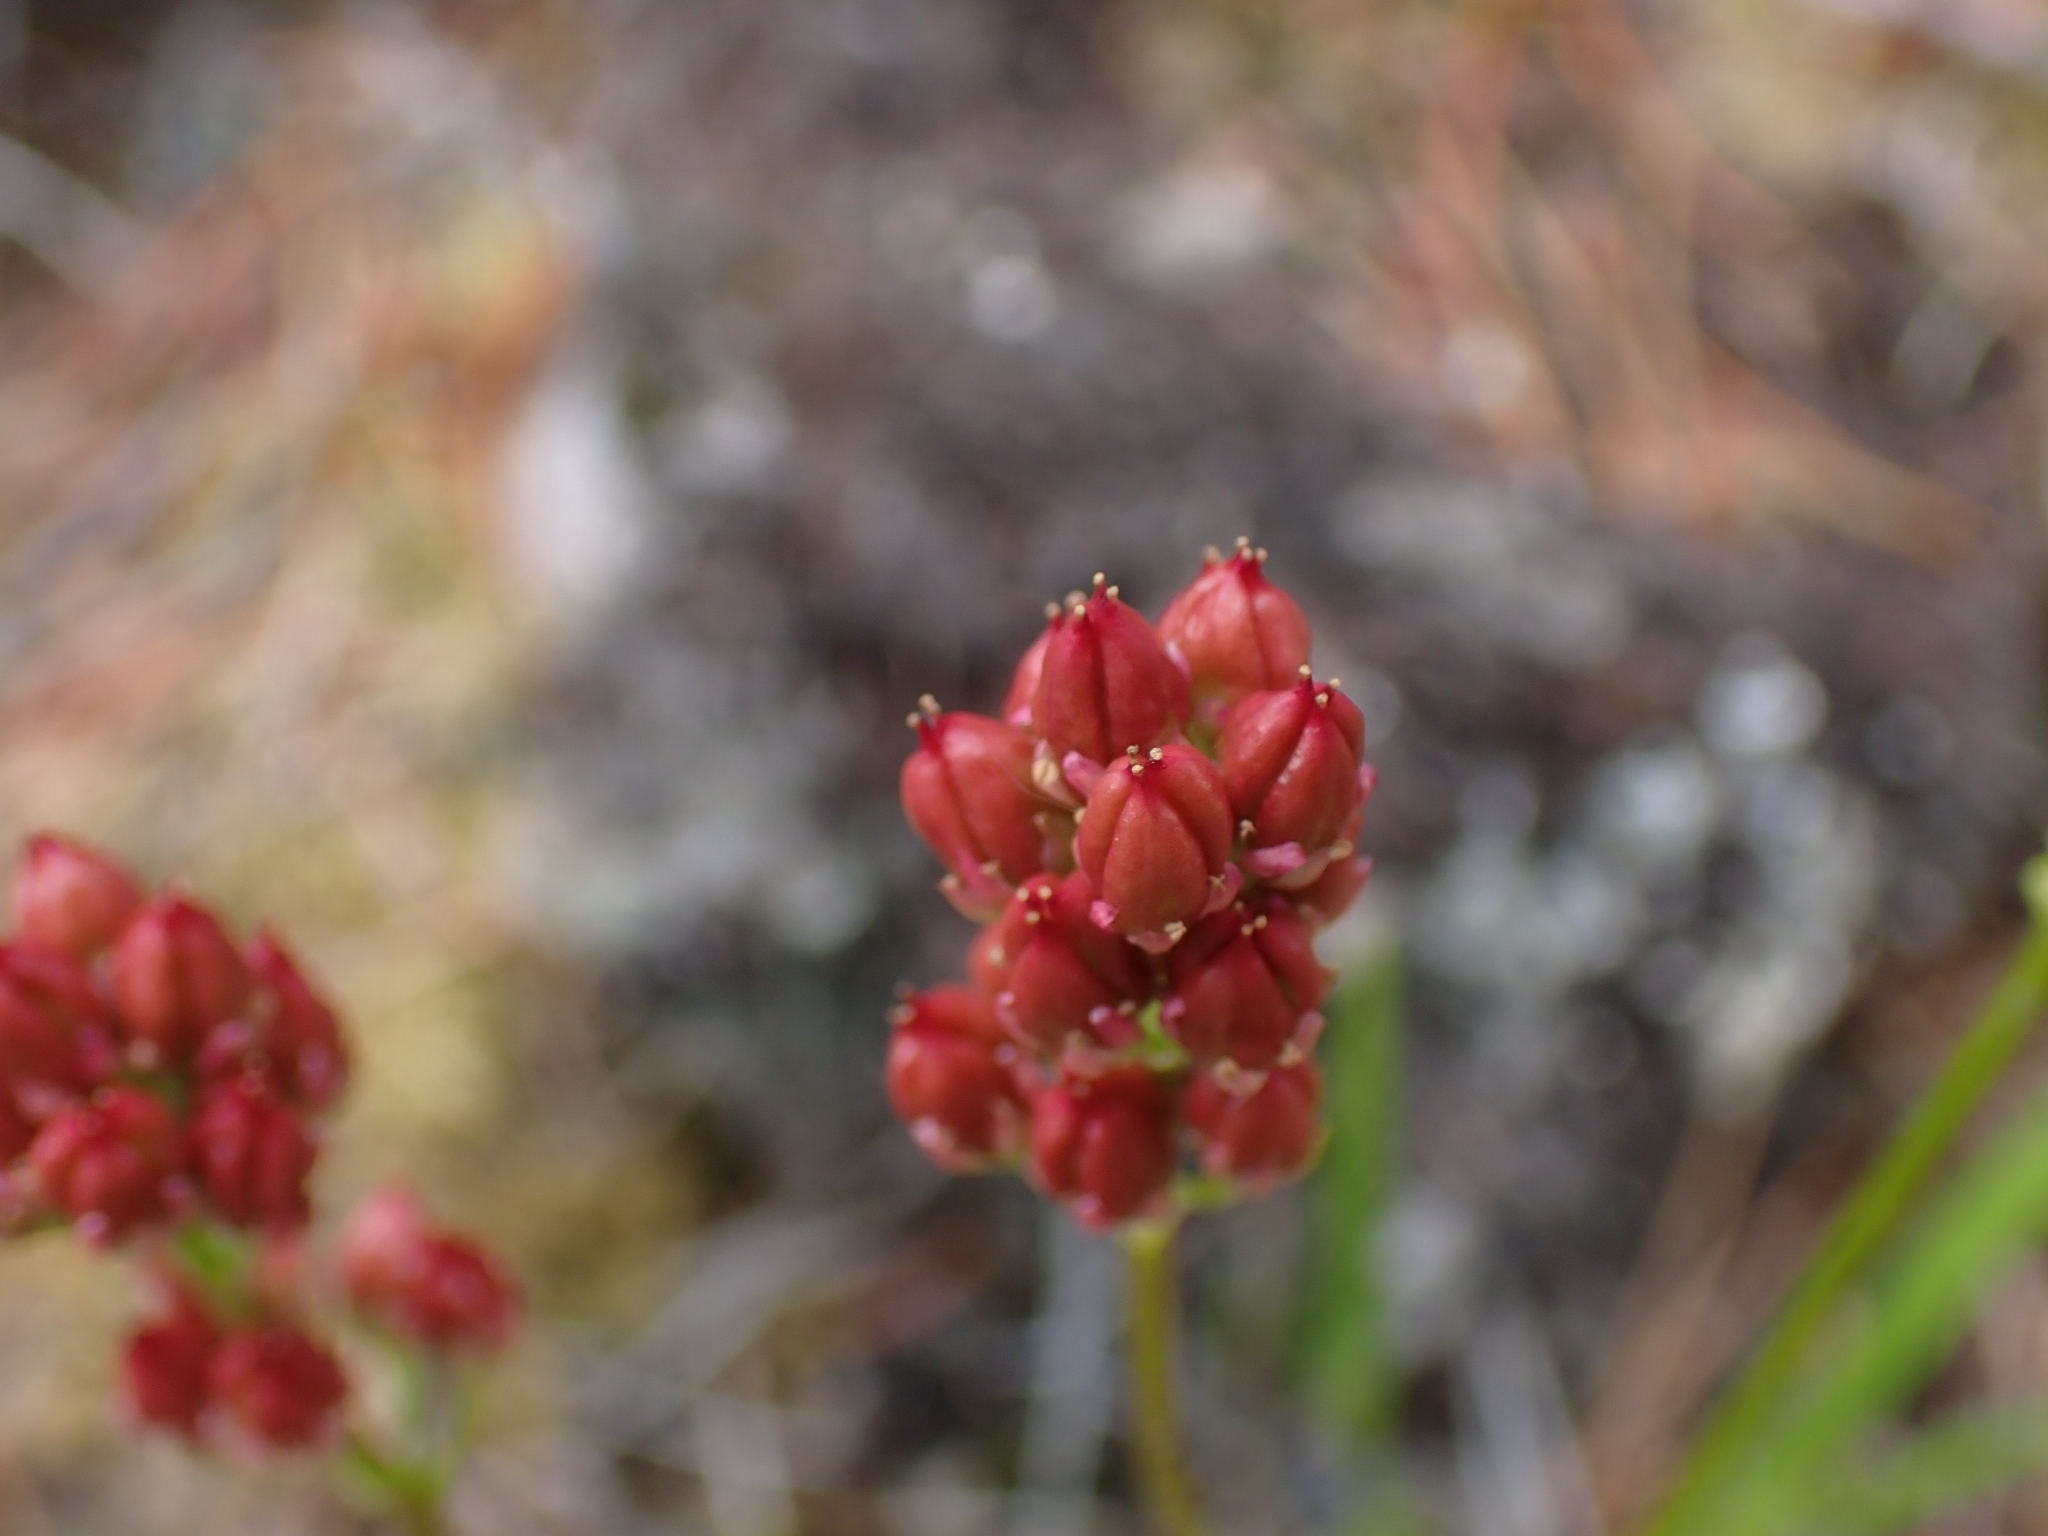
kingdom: Plantae
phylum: Tracheophyta
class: Liliopsida
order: Alismatales
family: Tofieldiaceae
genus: Triantha
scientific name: Triantha glutinosa
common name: Glutinous tofieldia
